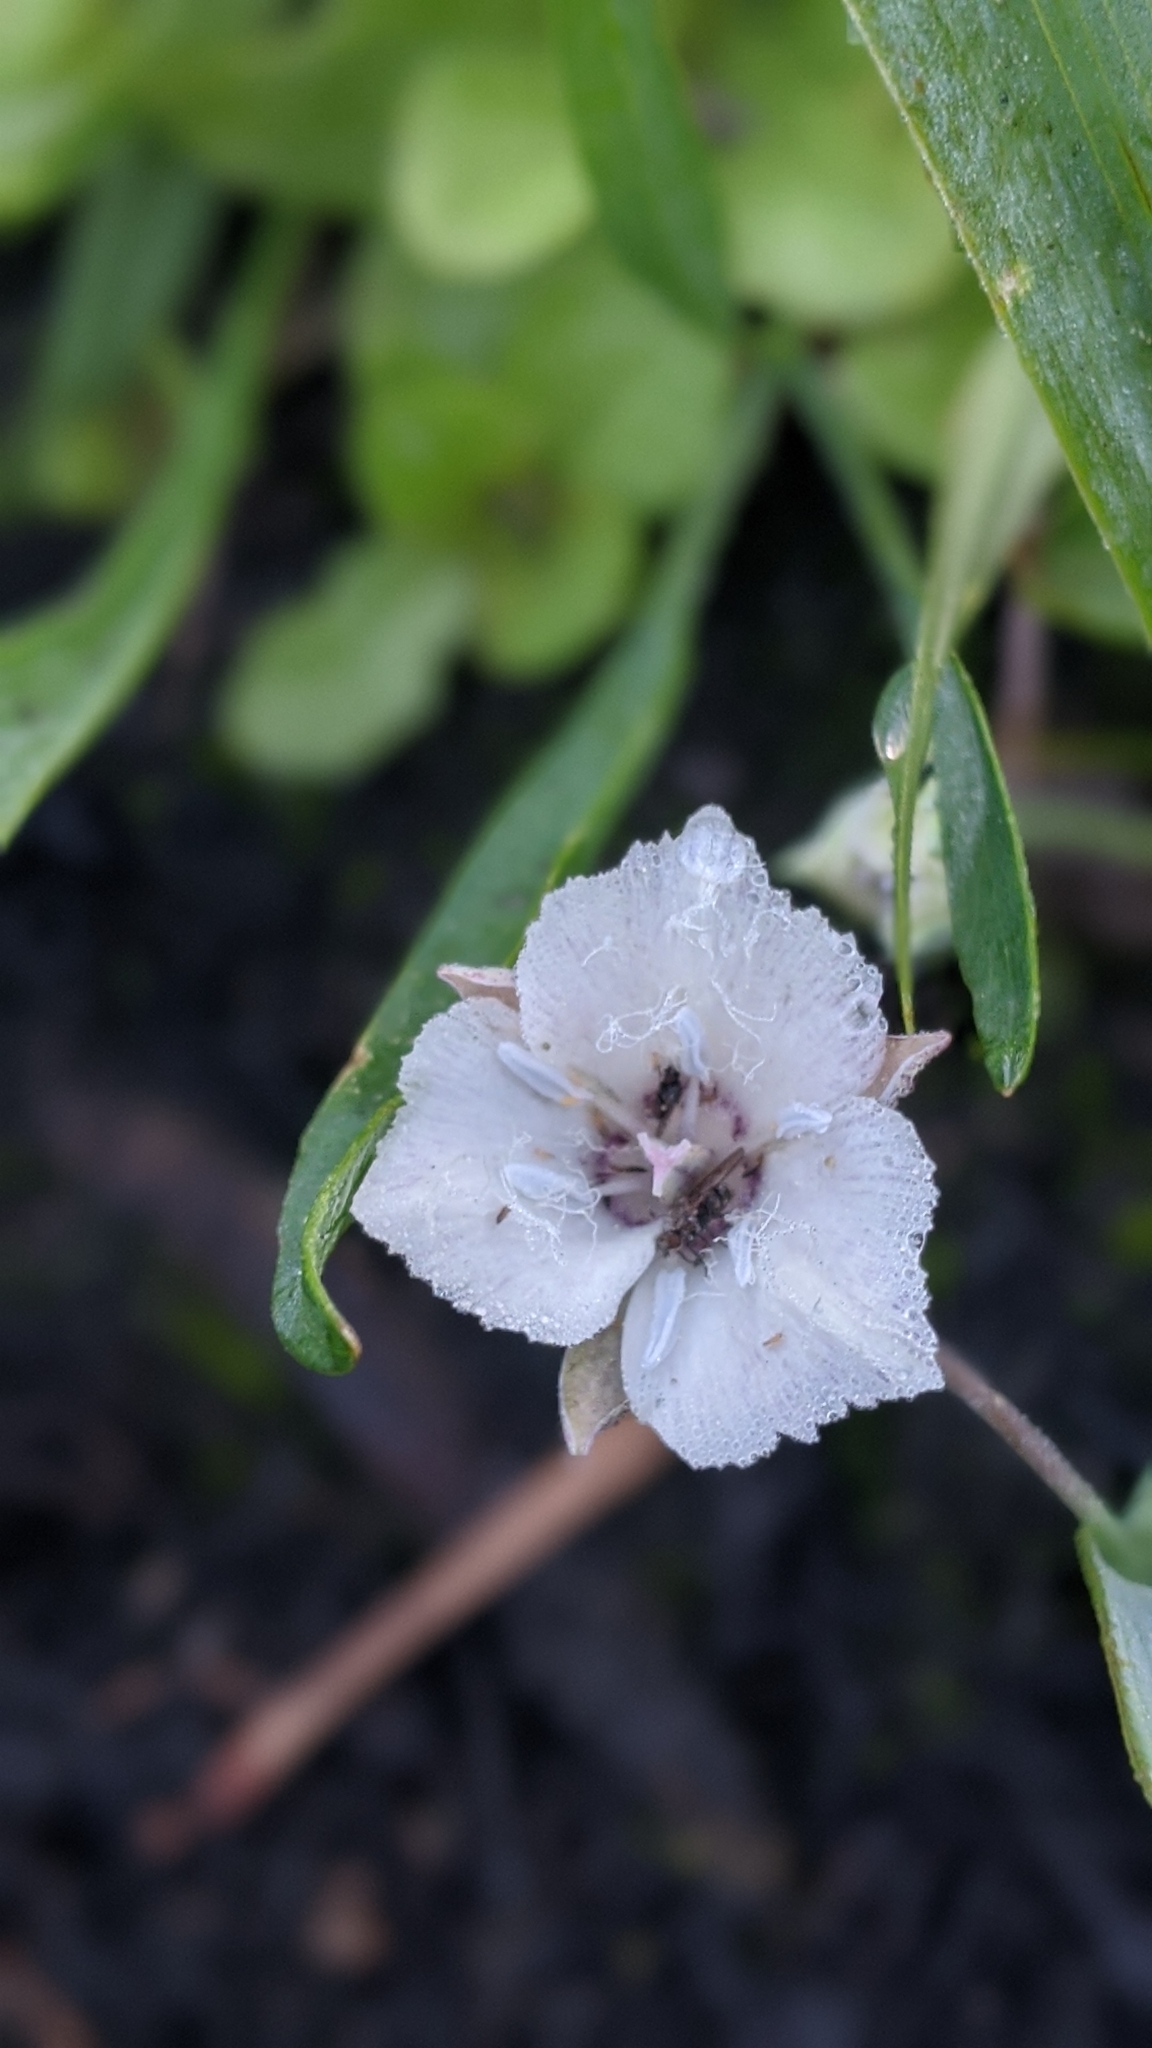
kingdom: Plantae
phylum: Tracheophyta
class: Liliopsida
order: Liliales
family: Liliaceae
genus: Calochortus
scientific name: Calochortus minimus
